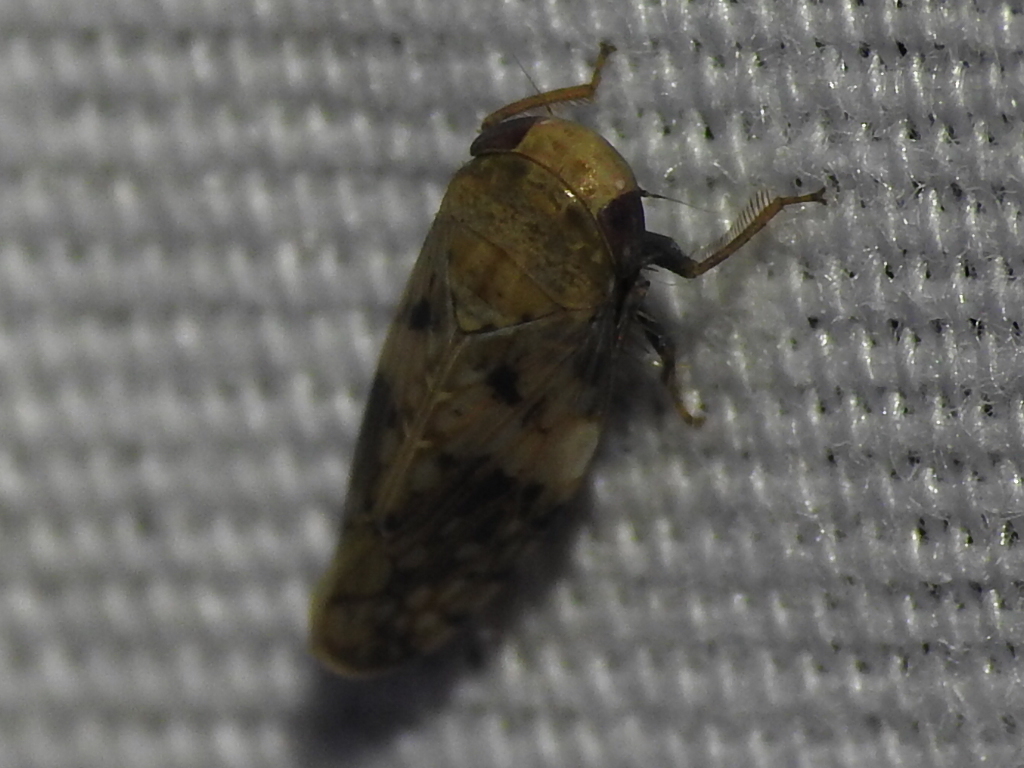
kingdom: Animalia
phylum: Arthropoda
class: Insecta
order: Hemiptera
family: Cicadellidae
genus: Menosoma
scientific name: Menosoma cinctum
